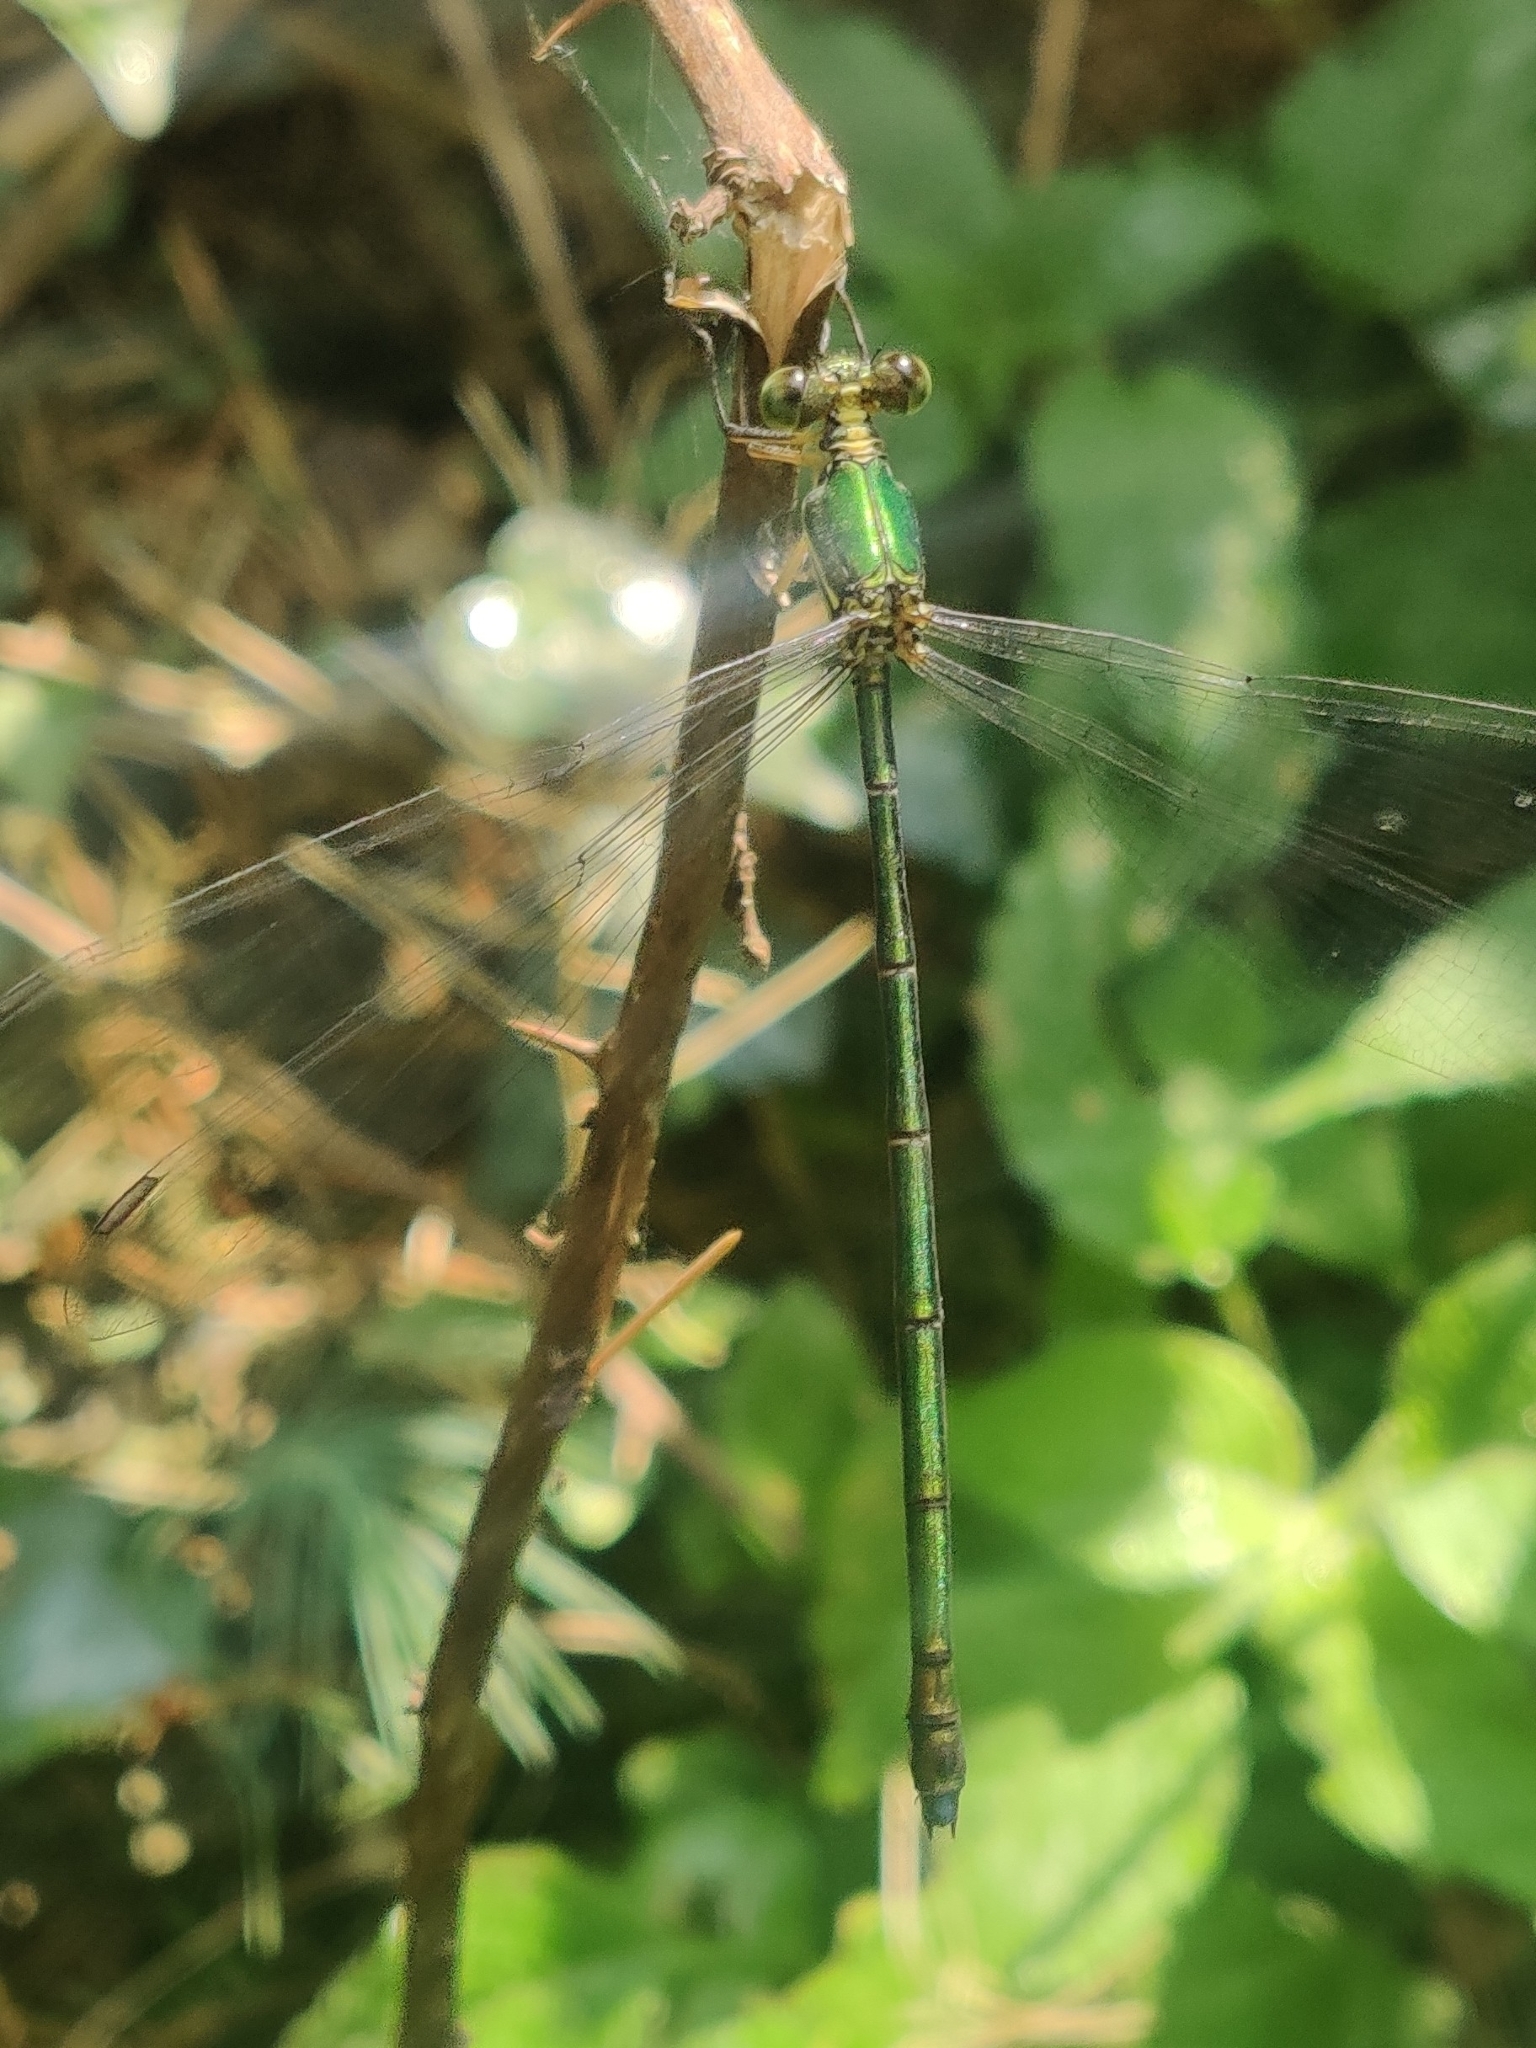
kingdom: Animalia
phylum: Arthropoda
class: Insecta
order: Odonata
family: Synlestidae
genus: Megalestes
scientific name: Megalestes major
